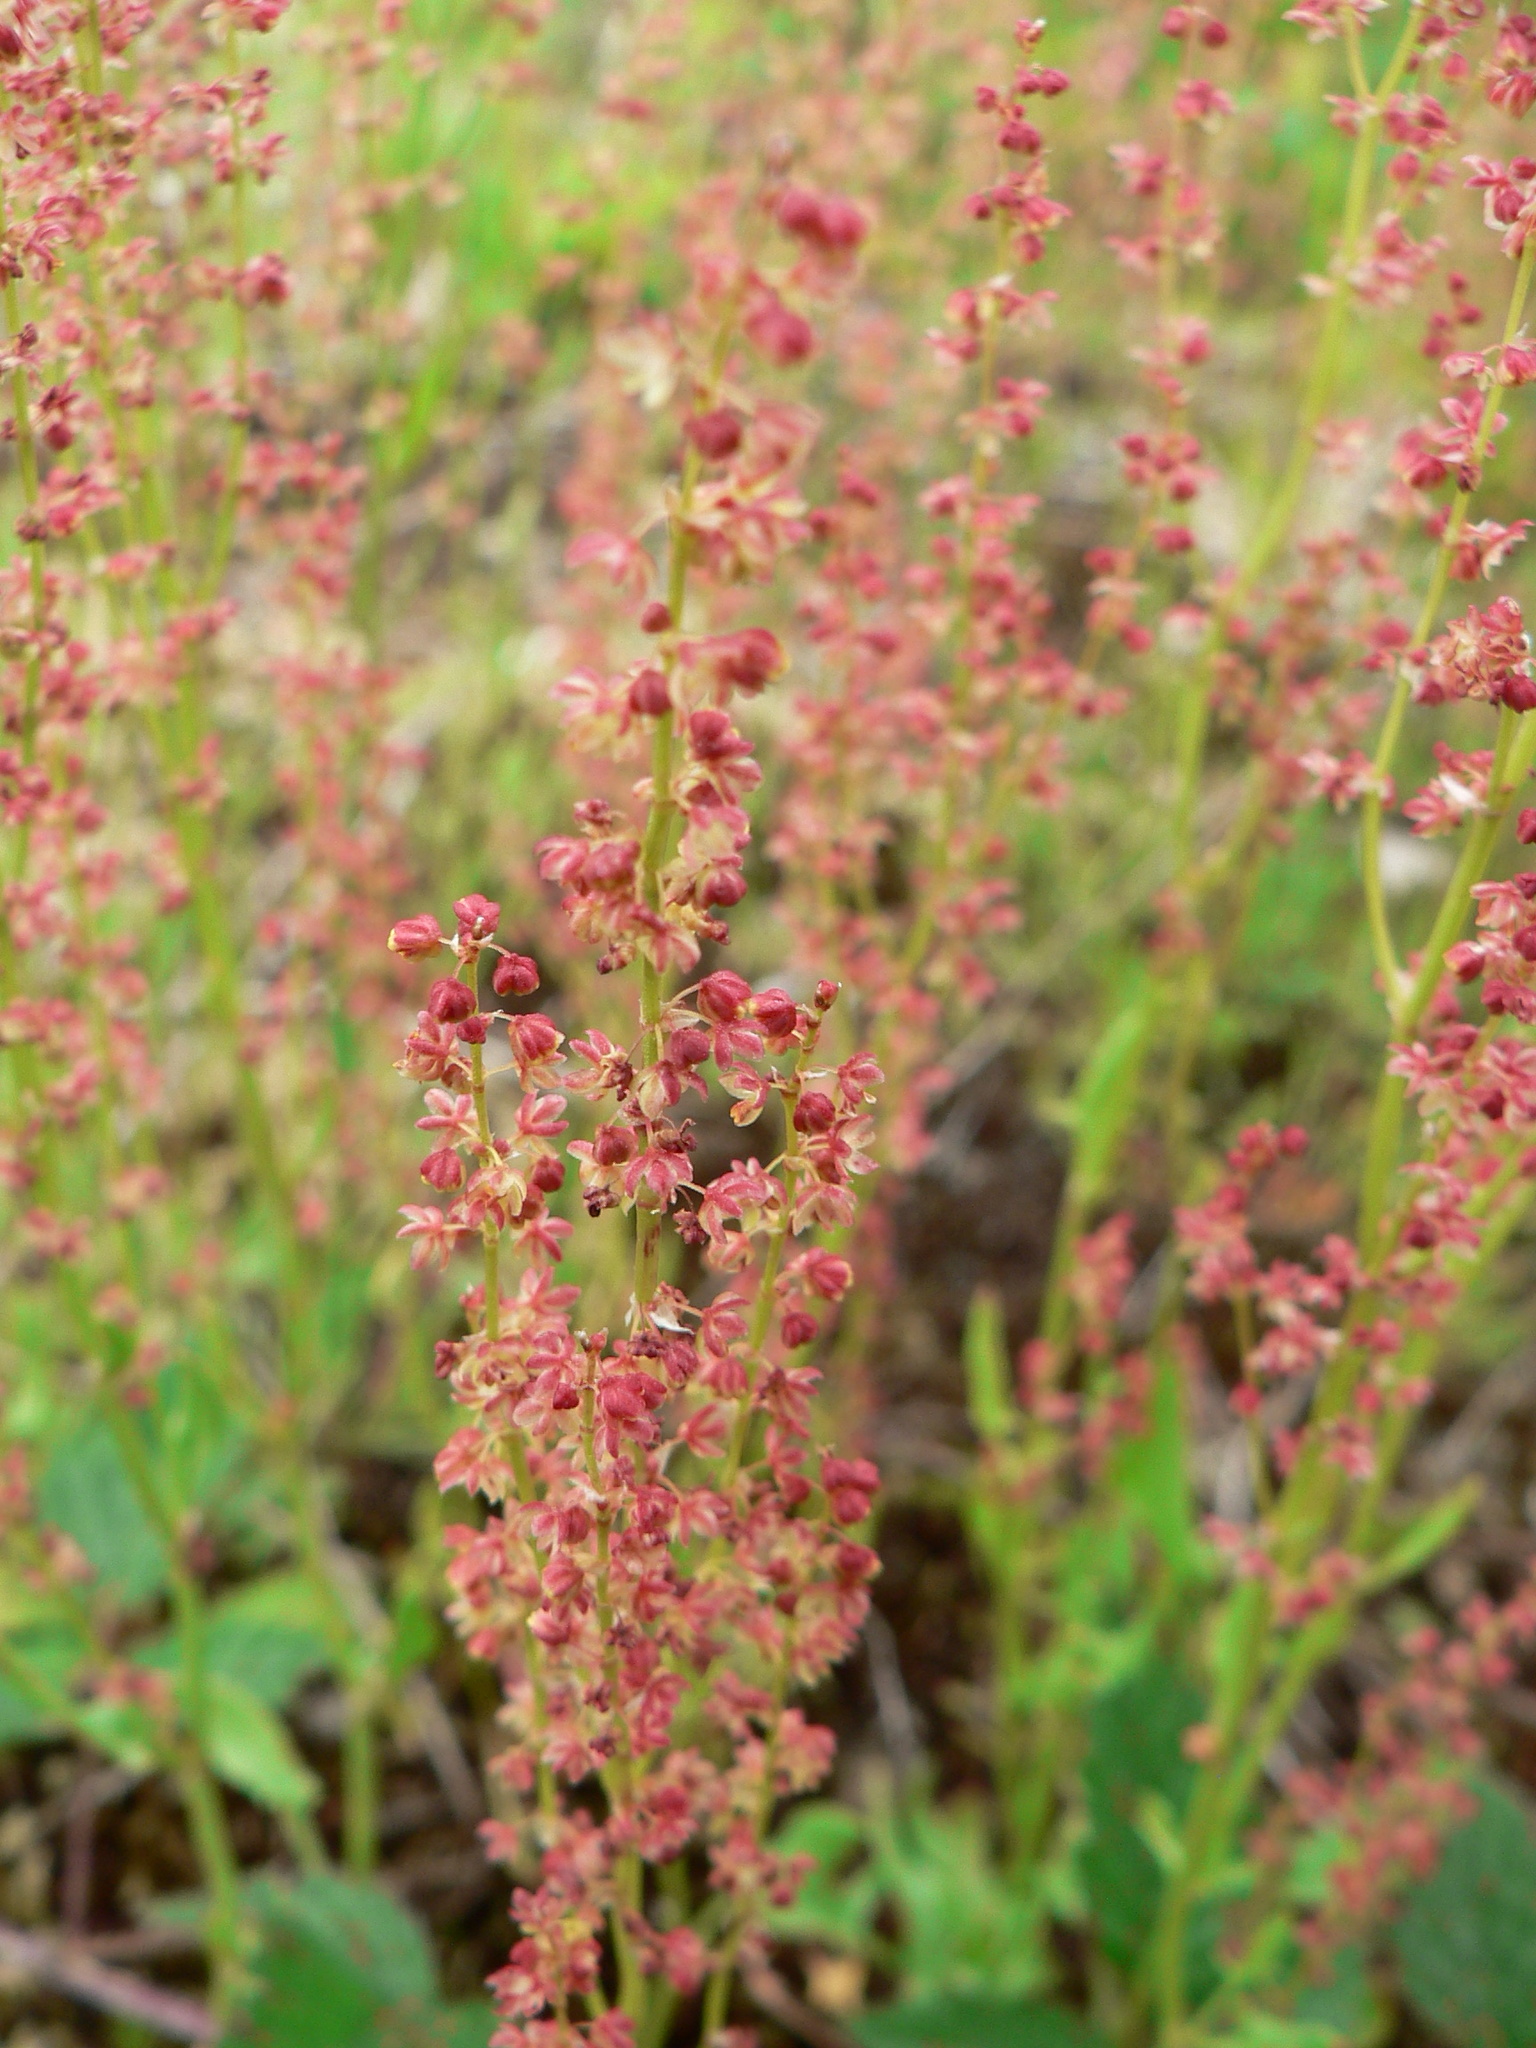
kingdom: Plantae
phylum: Tracheophyta
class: Magnoliopsida
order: Caryophyllales
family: Polygonaceae
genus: Rumex
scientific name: Rumex acetosella
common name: Common sheep sorrel
